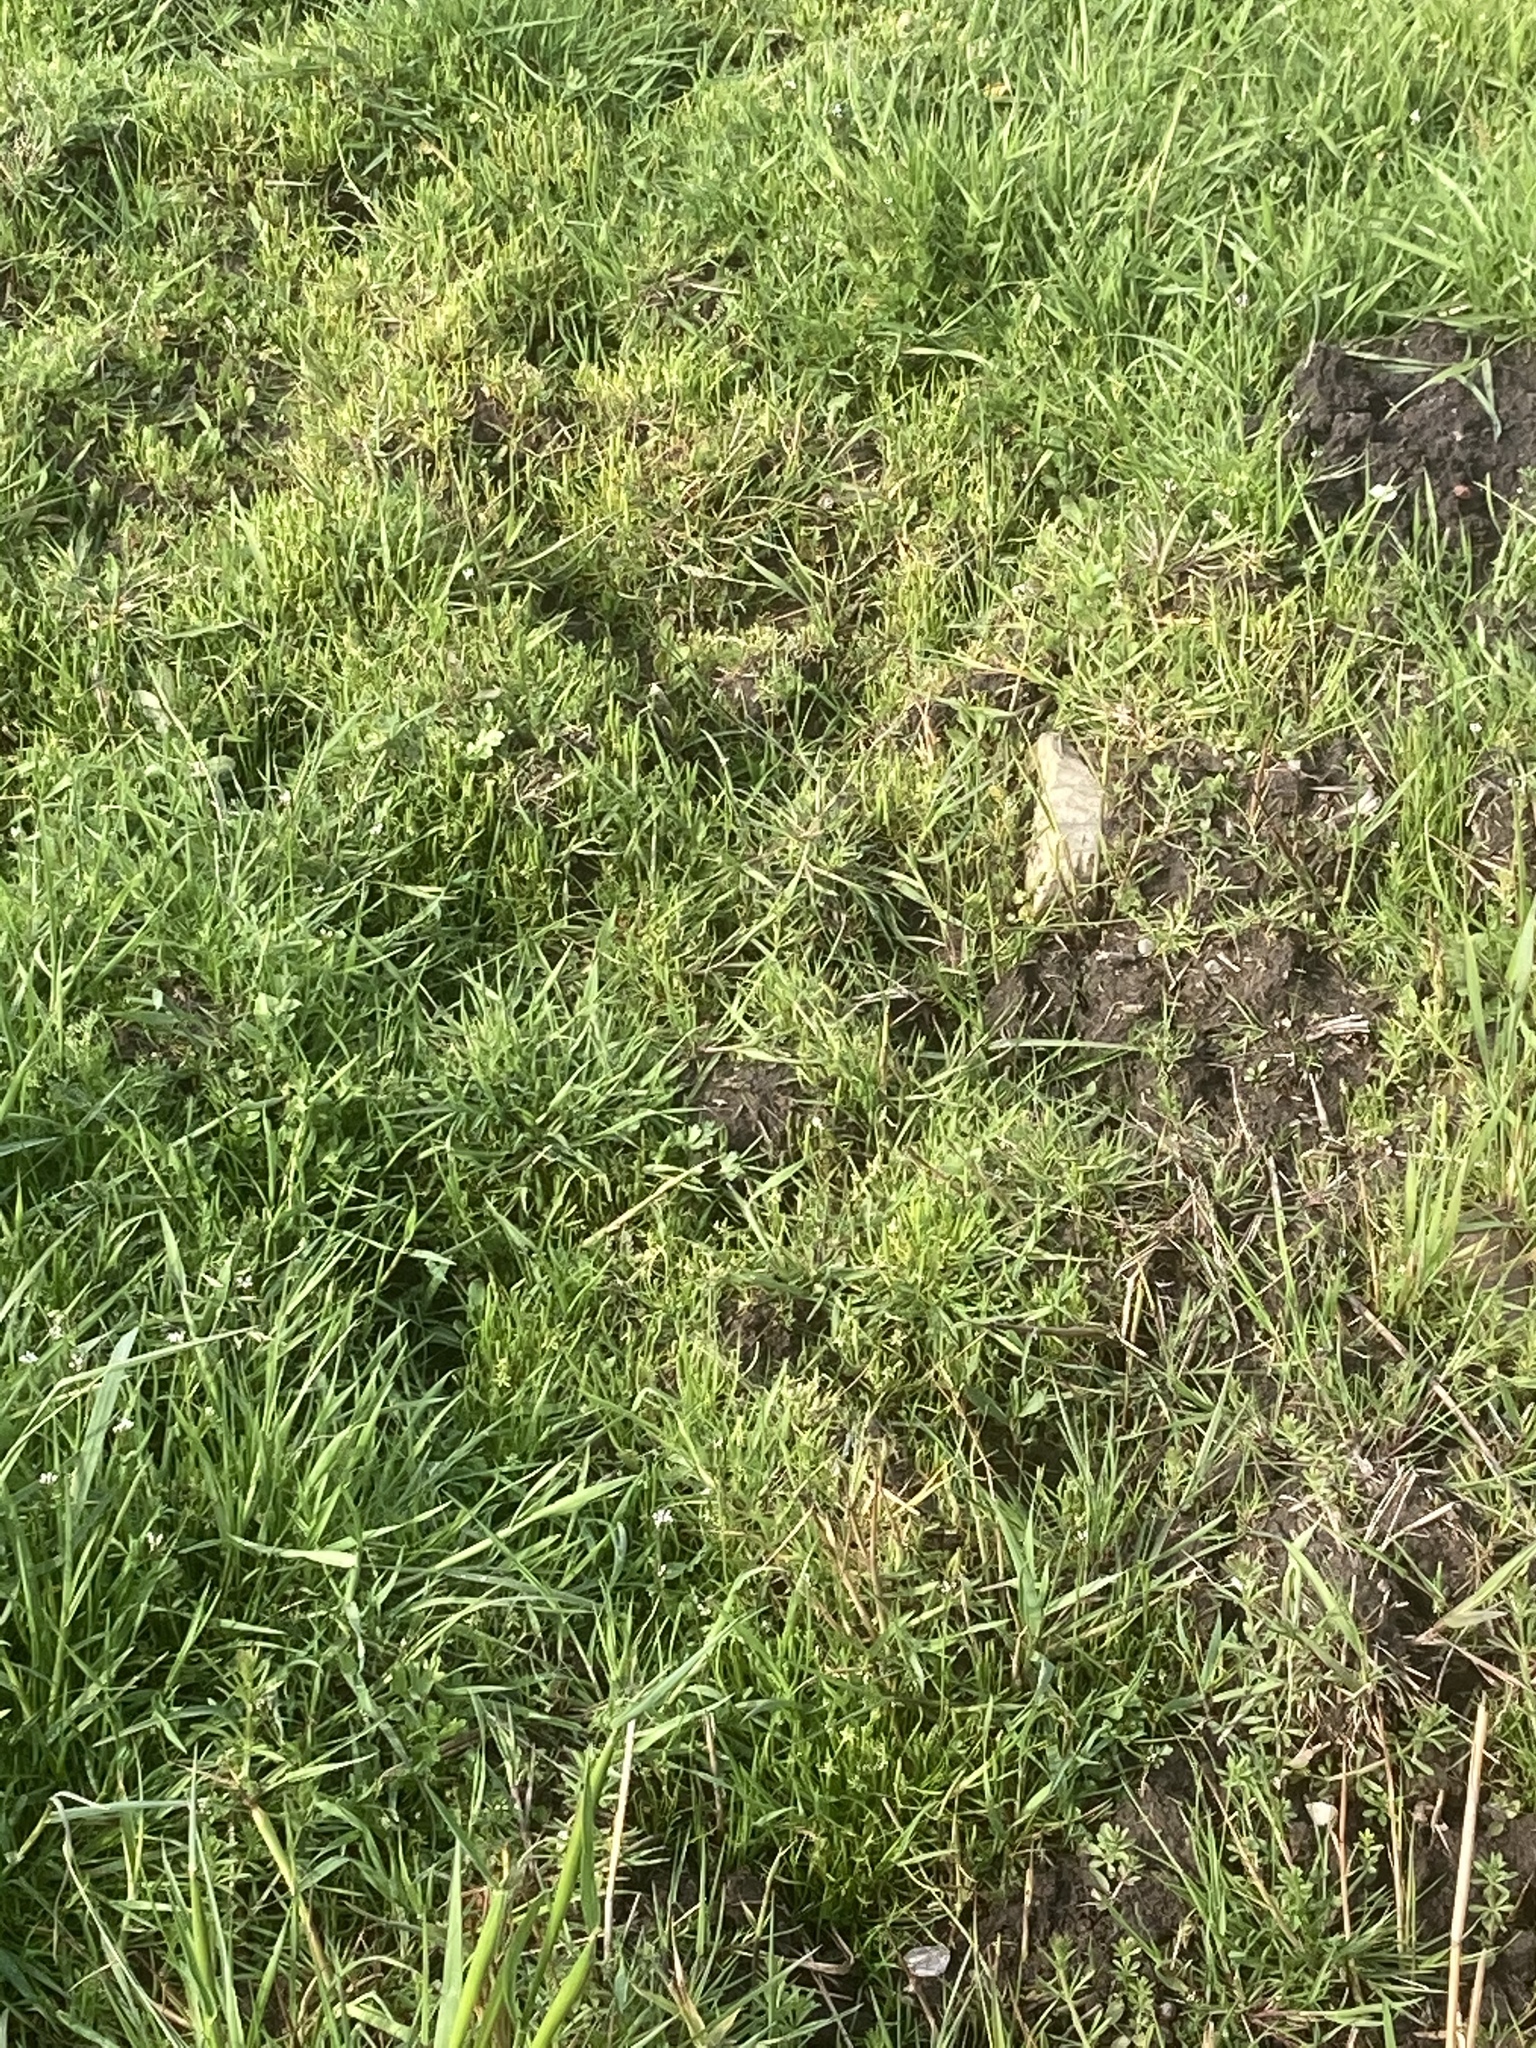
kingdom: Plantae
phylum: Tracheophyta
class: Magnoliopsida
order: Ranunculales
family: Ranunculaceae
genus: Myosurus
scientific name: Myosurus minimus
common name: Mousetail
